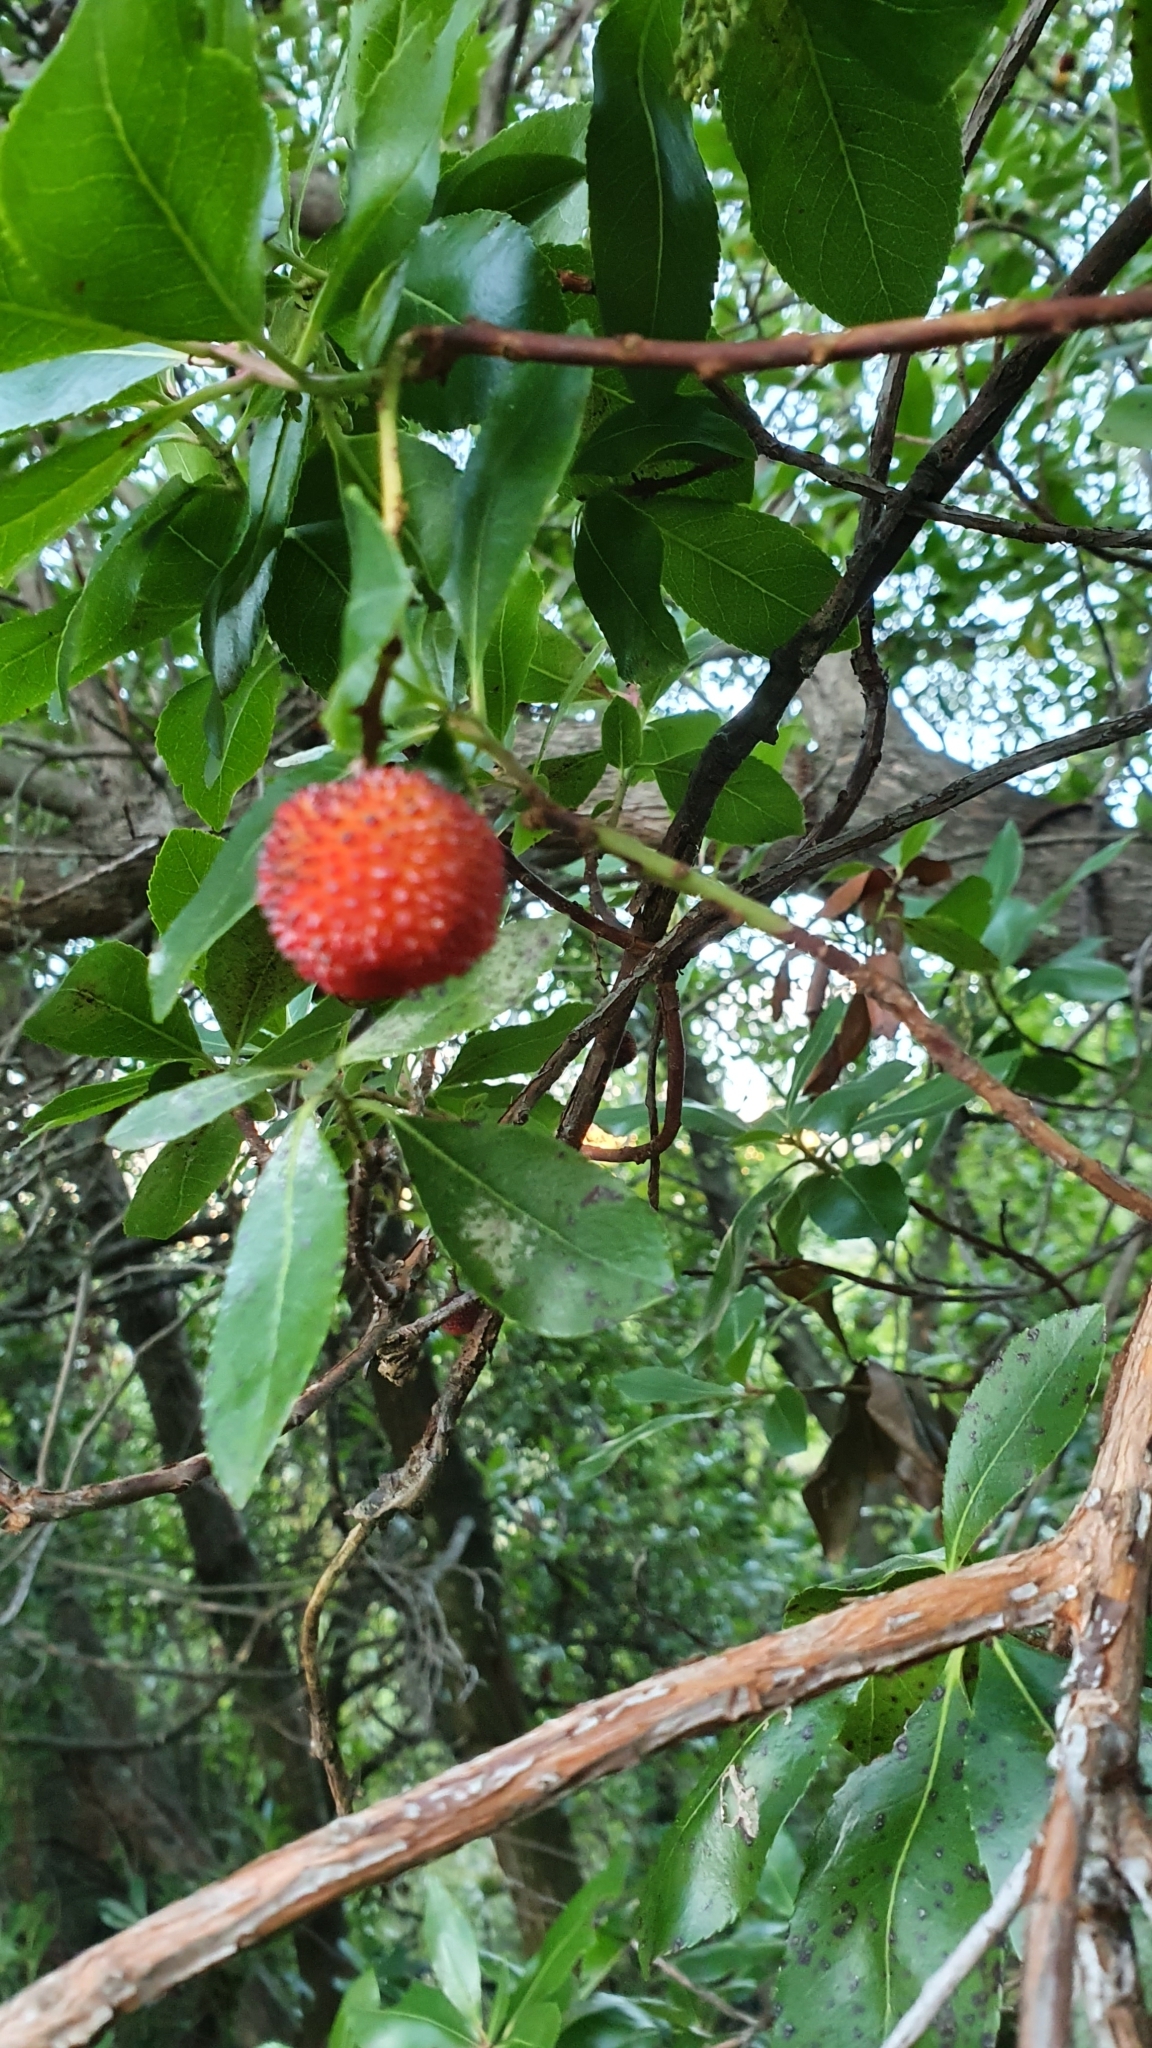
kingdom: Plantae
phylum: Tracheophyta
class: Magnoliopsida
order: Ericales
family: Ericaceae
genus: Arbutus
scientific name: Arbutus unedo
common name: Strawberry-tree
